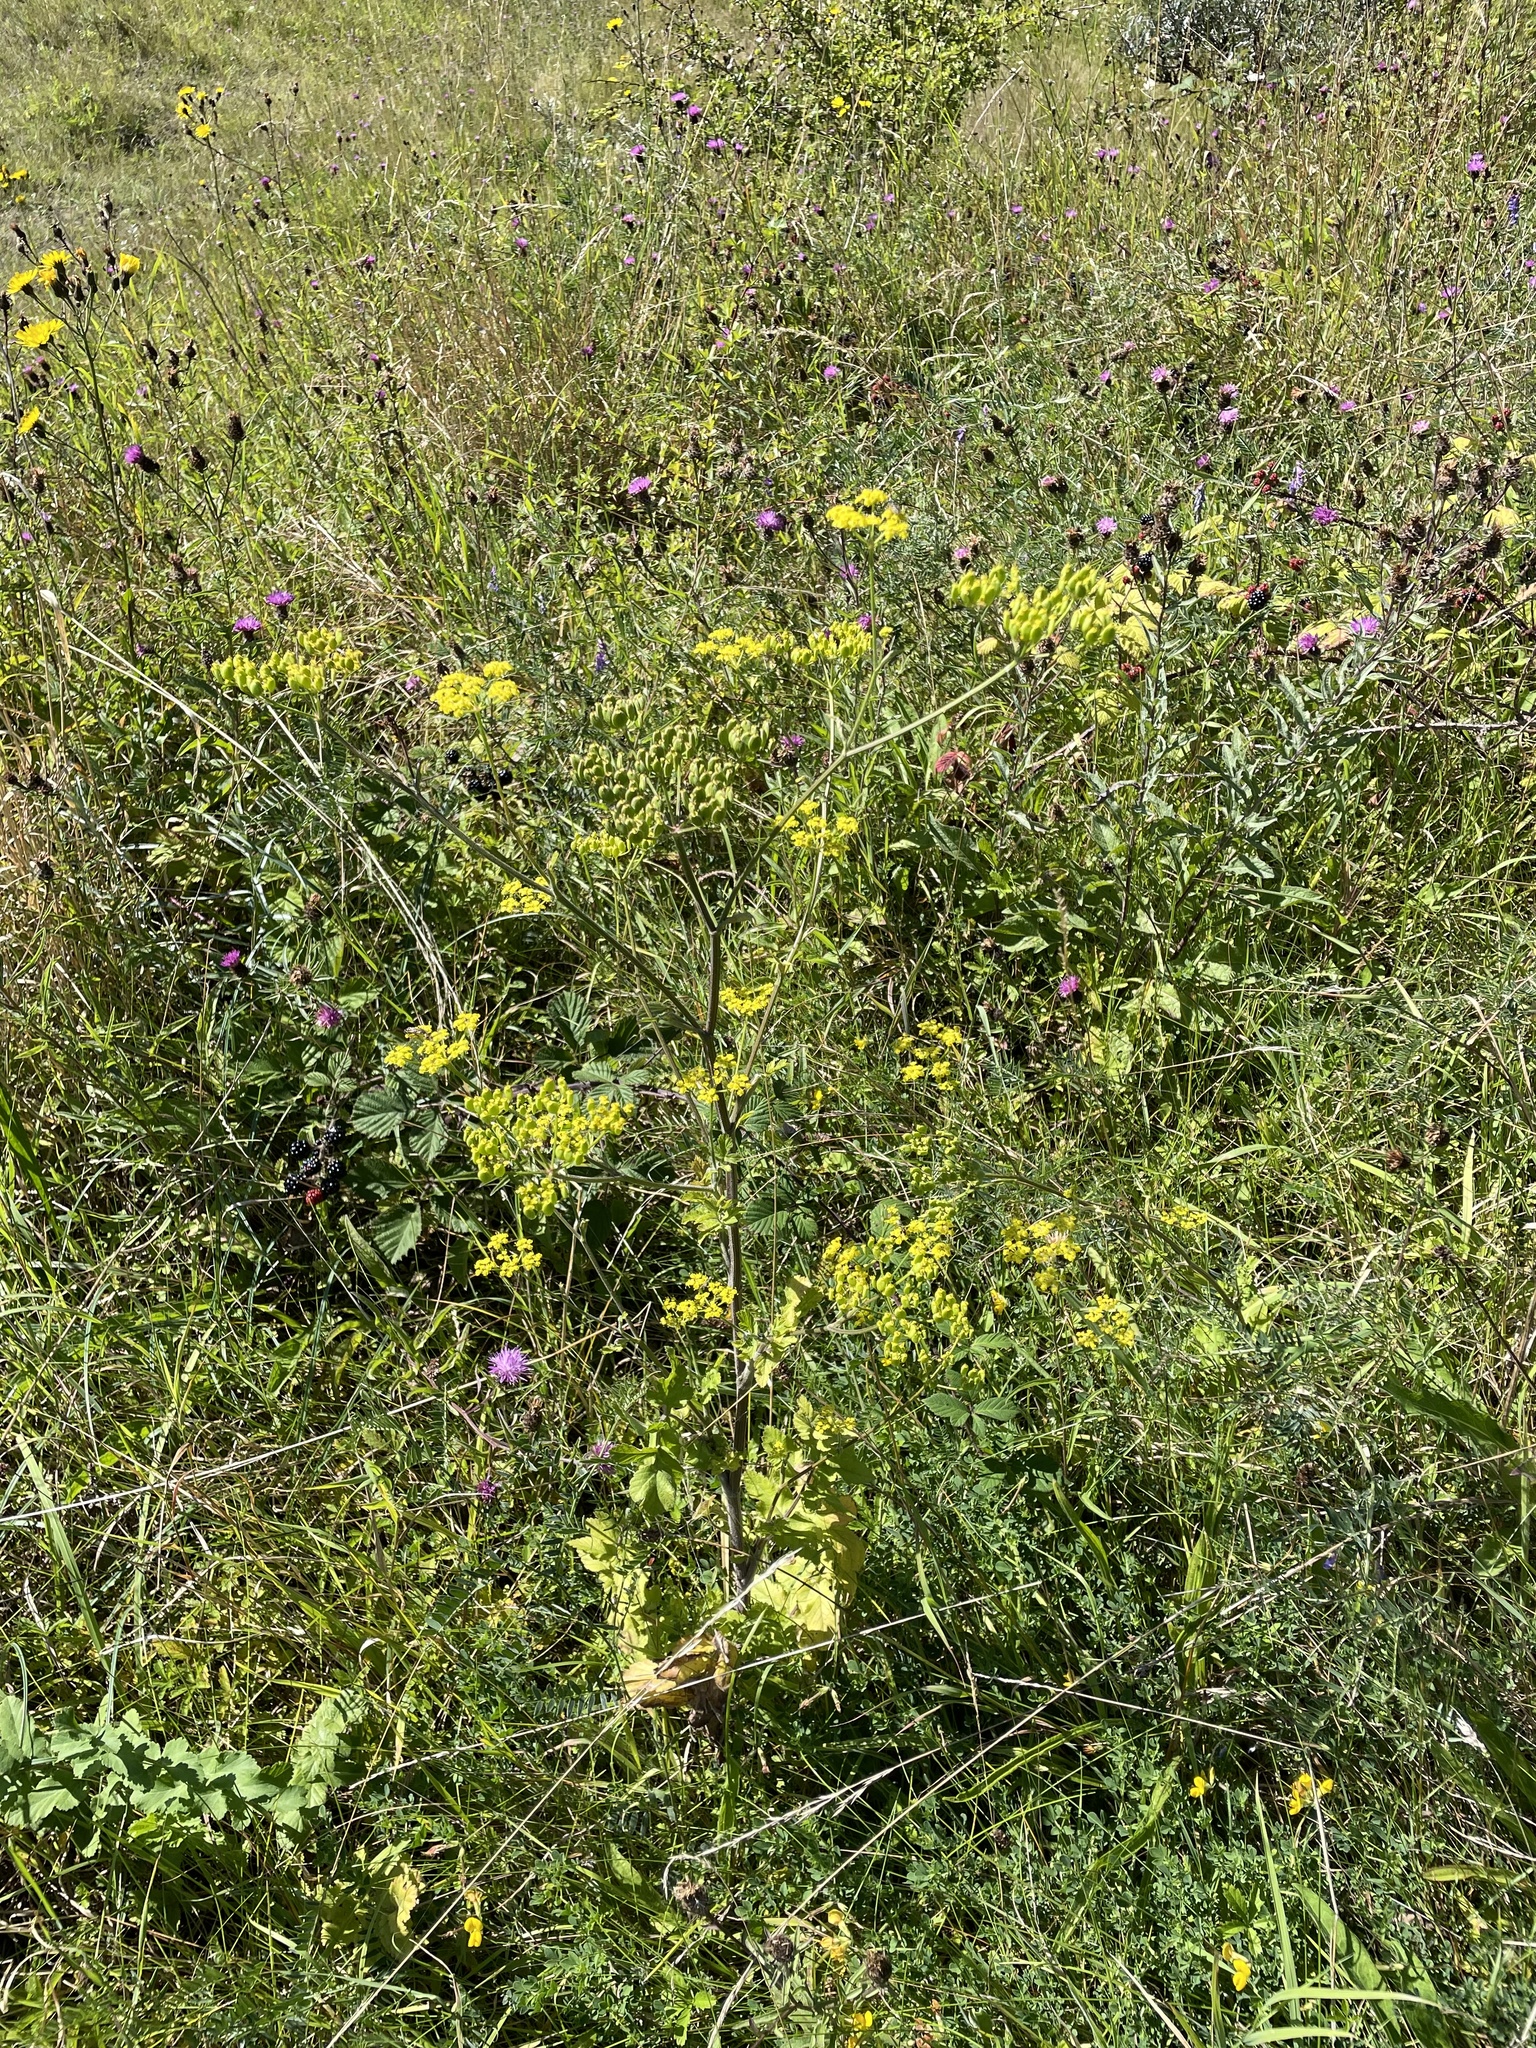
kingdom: Plantae
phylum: Tracheophyta
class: Magnoliopsida
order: Apiales
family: Apiaceae
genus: Pastinaca
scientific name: Pastinaca sativa
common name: Wild parsnip
